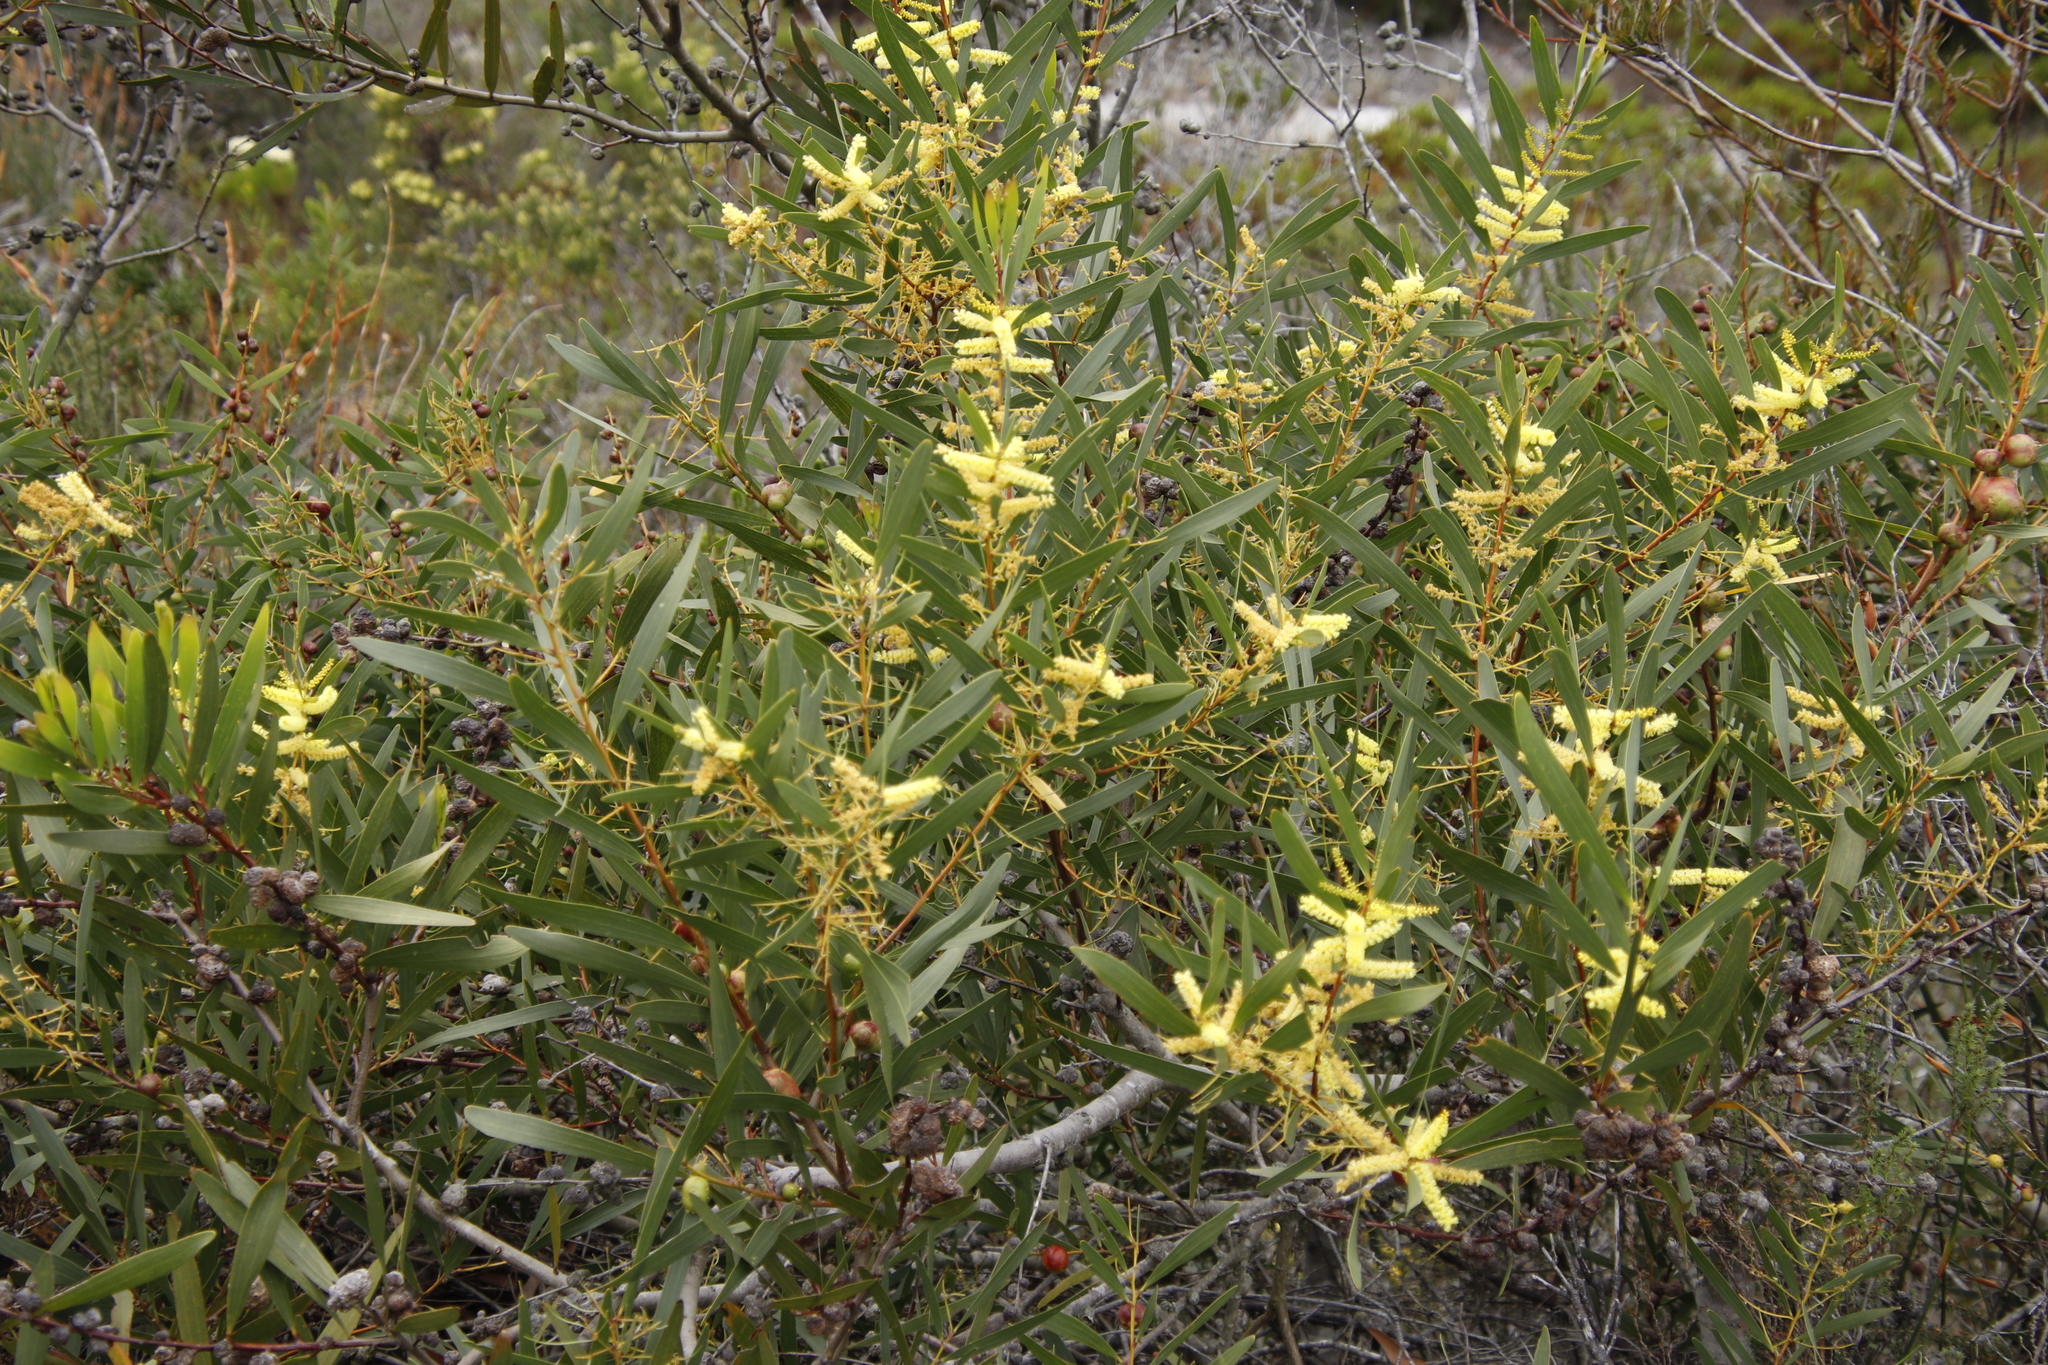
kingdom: Plantae
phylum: Tracheophyta
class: Magnoliopsida
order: Fabales
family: Fabaceae
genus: Acacia
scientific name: Acacia longifolia
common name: Sydney golden wattle
